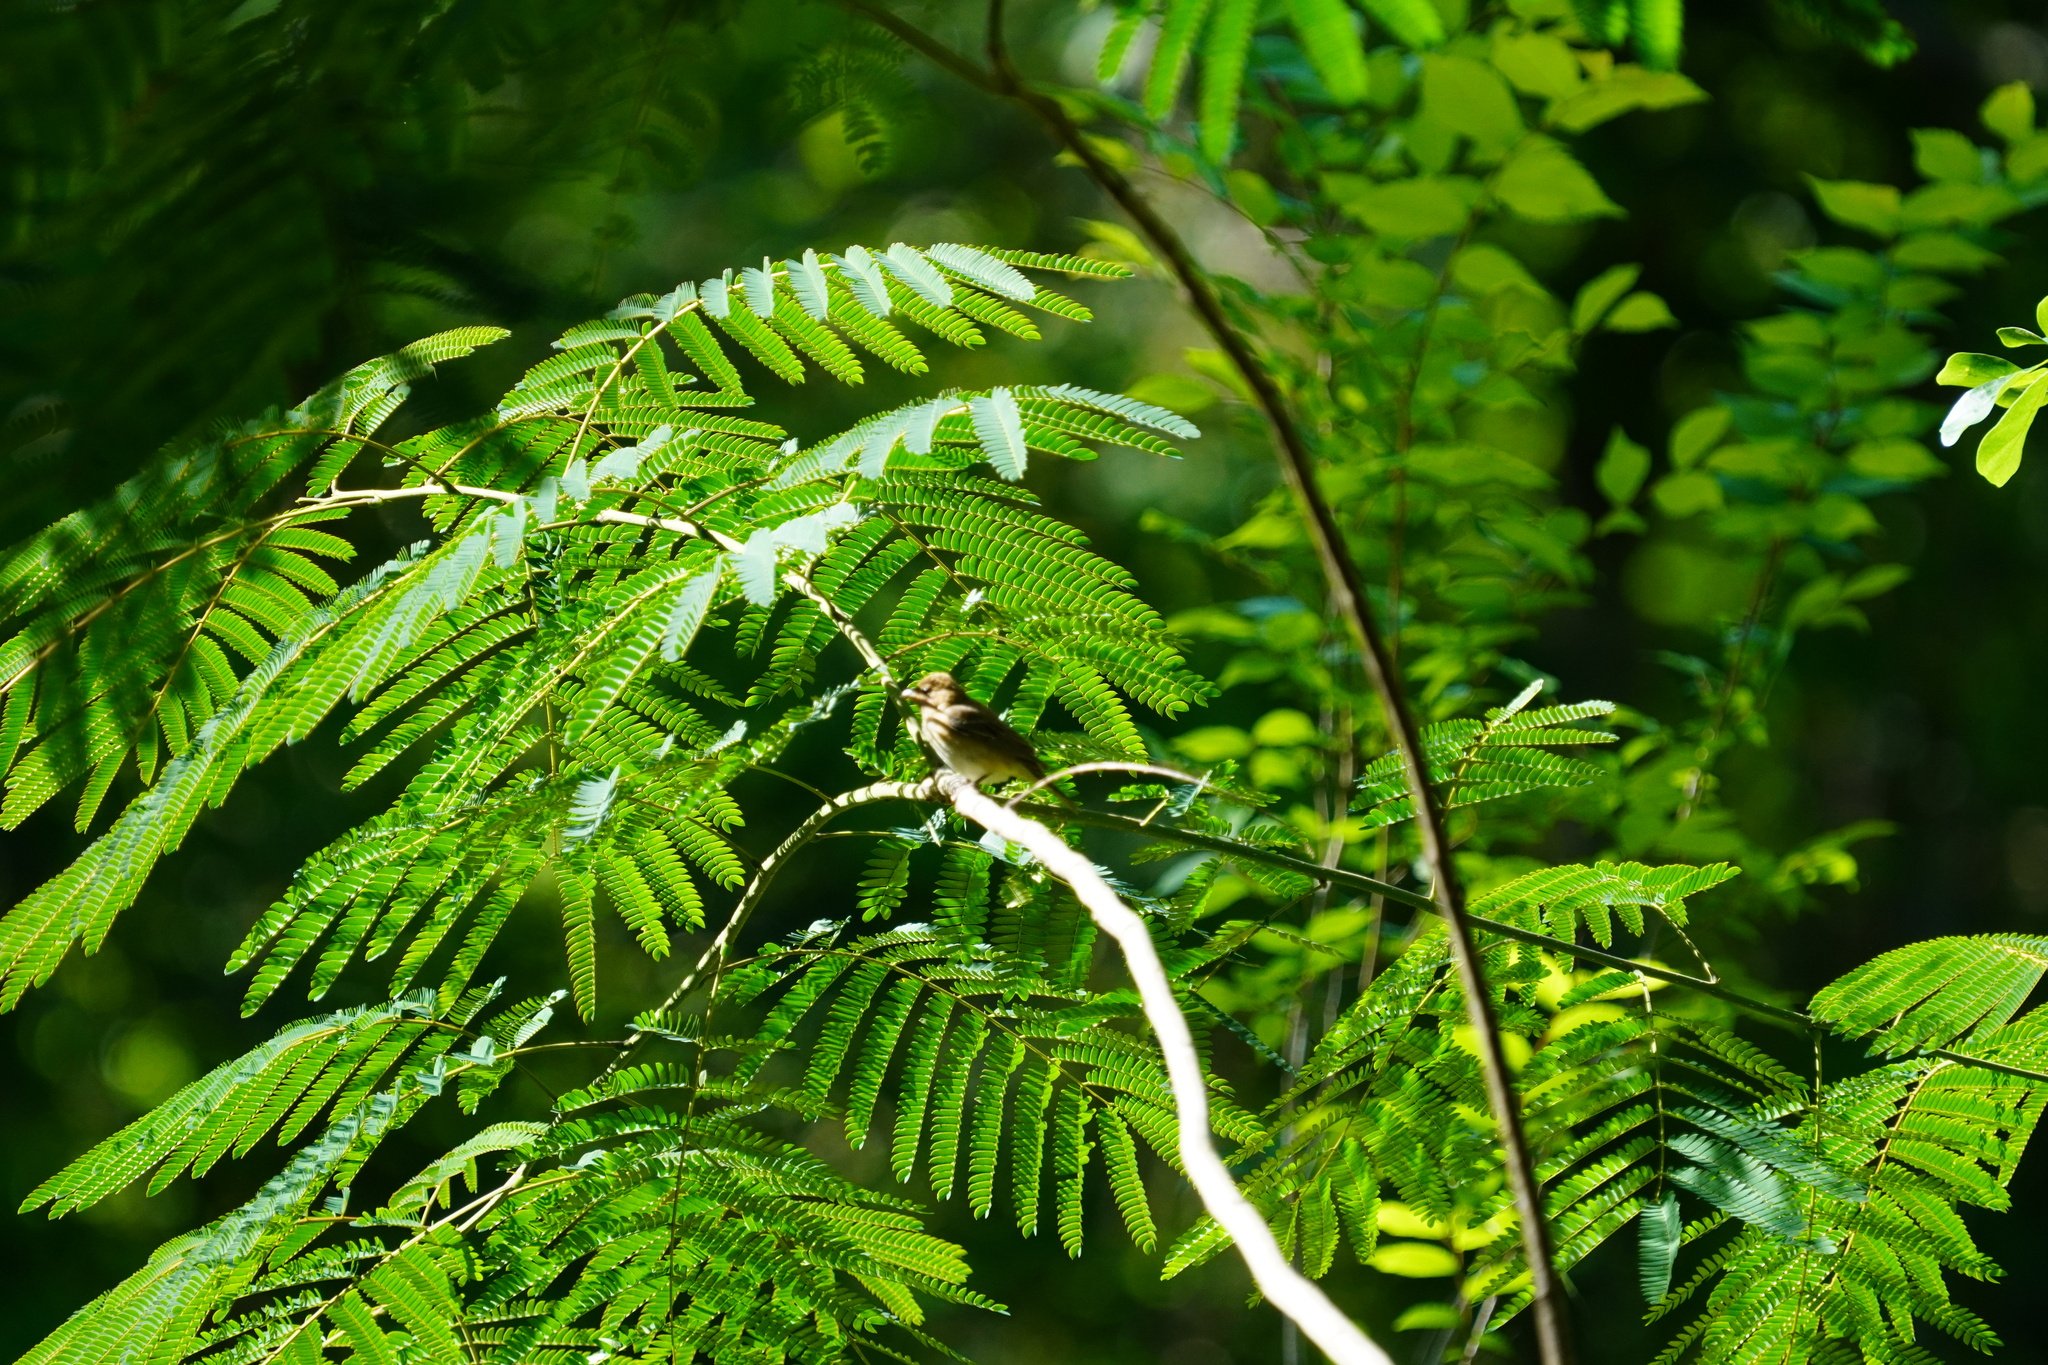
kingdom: Animalia
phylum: Chordata
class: Aves
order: Passeriformes
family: Cardinalidae
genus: Passerina
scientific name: Passerina cyanea
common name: Indigo bunting
